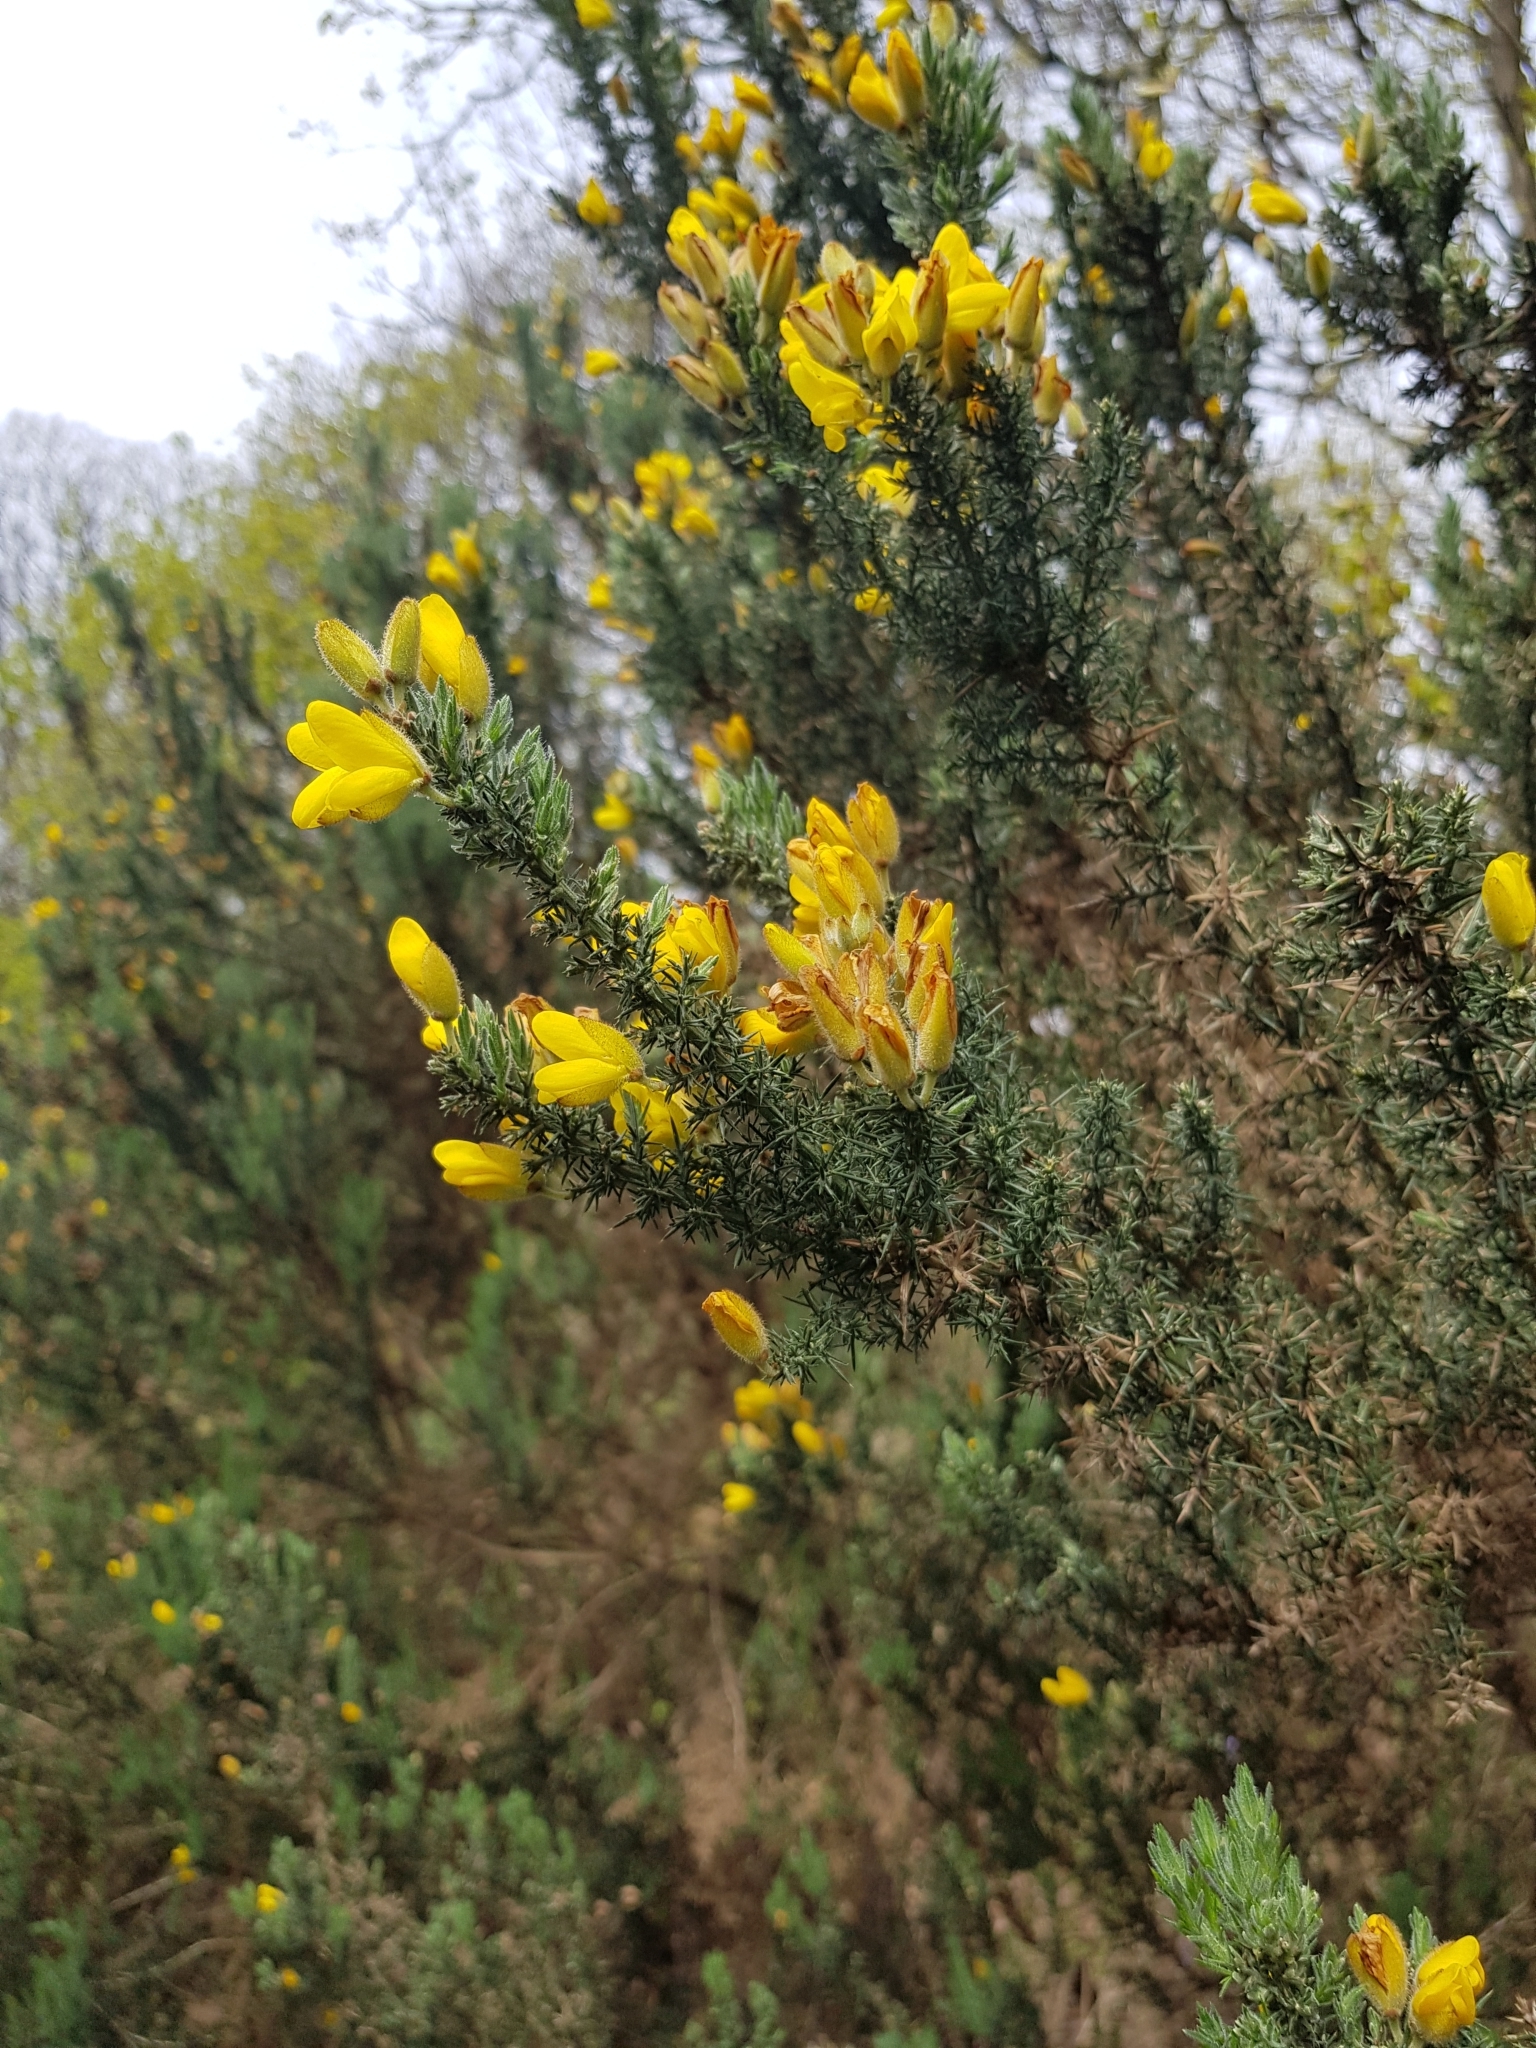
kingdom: Plantae
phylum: Tracheophyta
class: Magnoliopsida
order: Fabales
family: Fabaceae
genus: Ulex
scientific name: Ulex europaeus
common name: Common gorse
